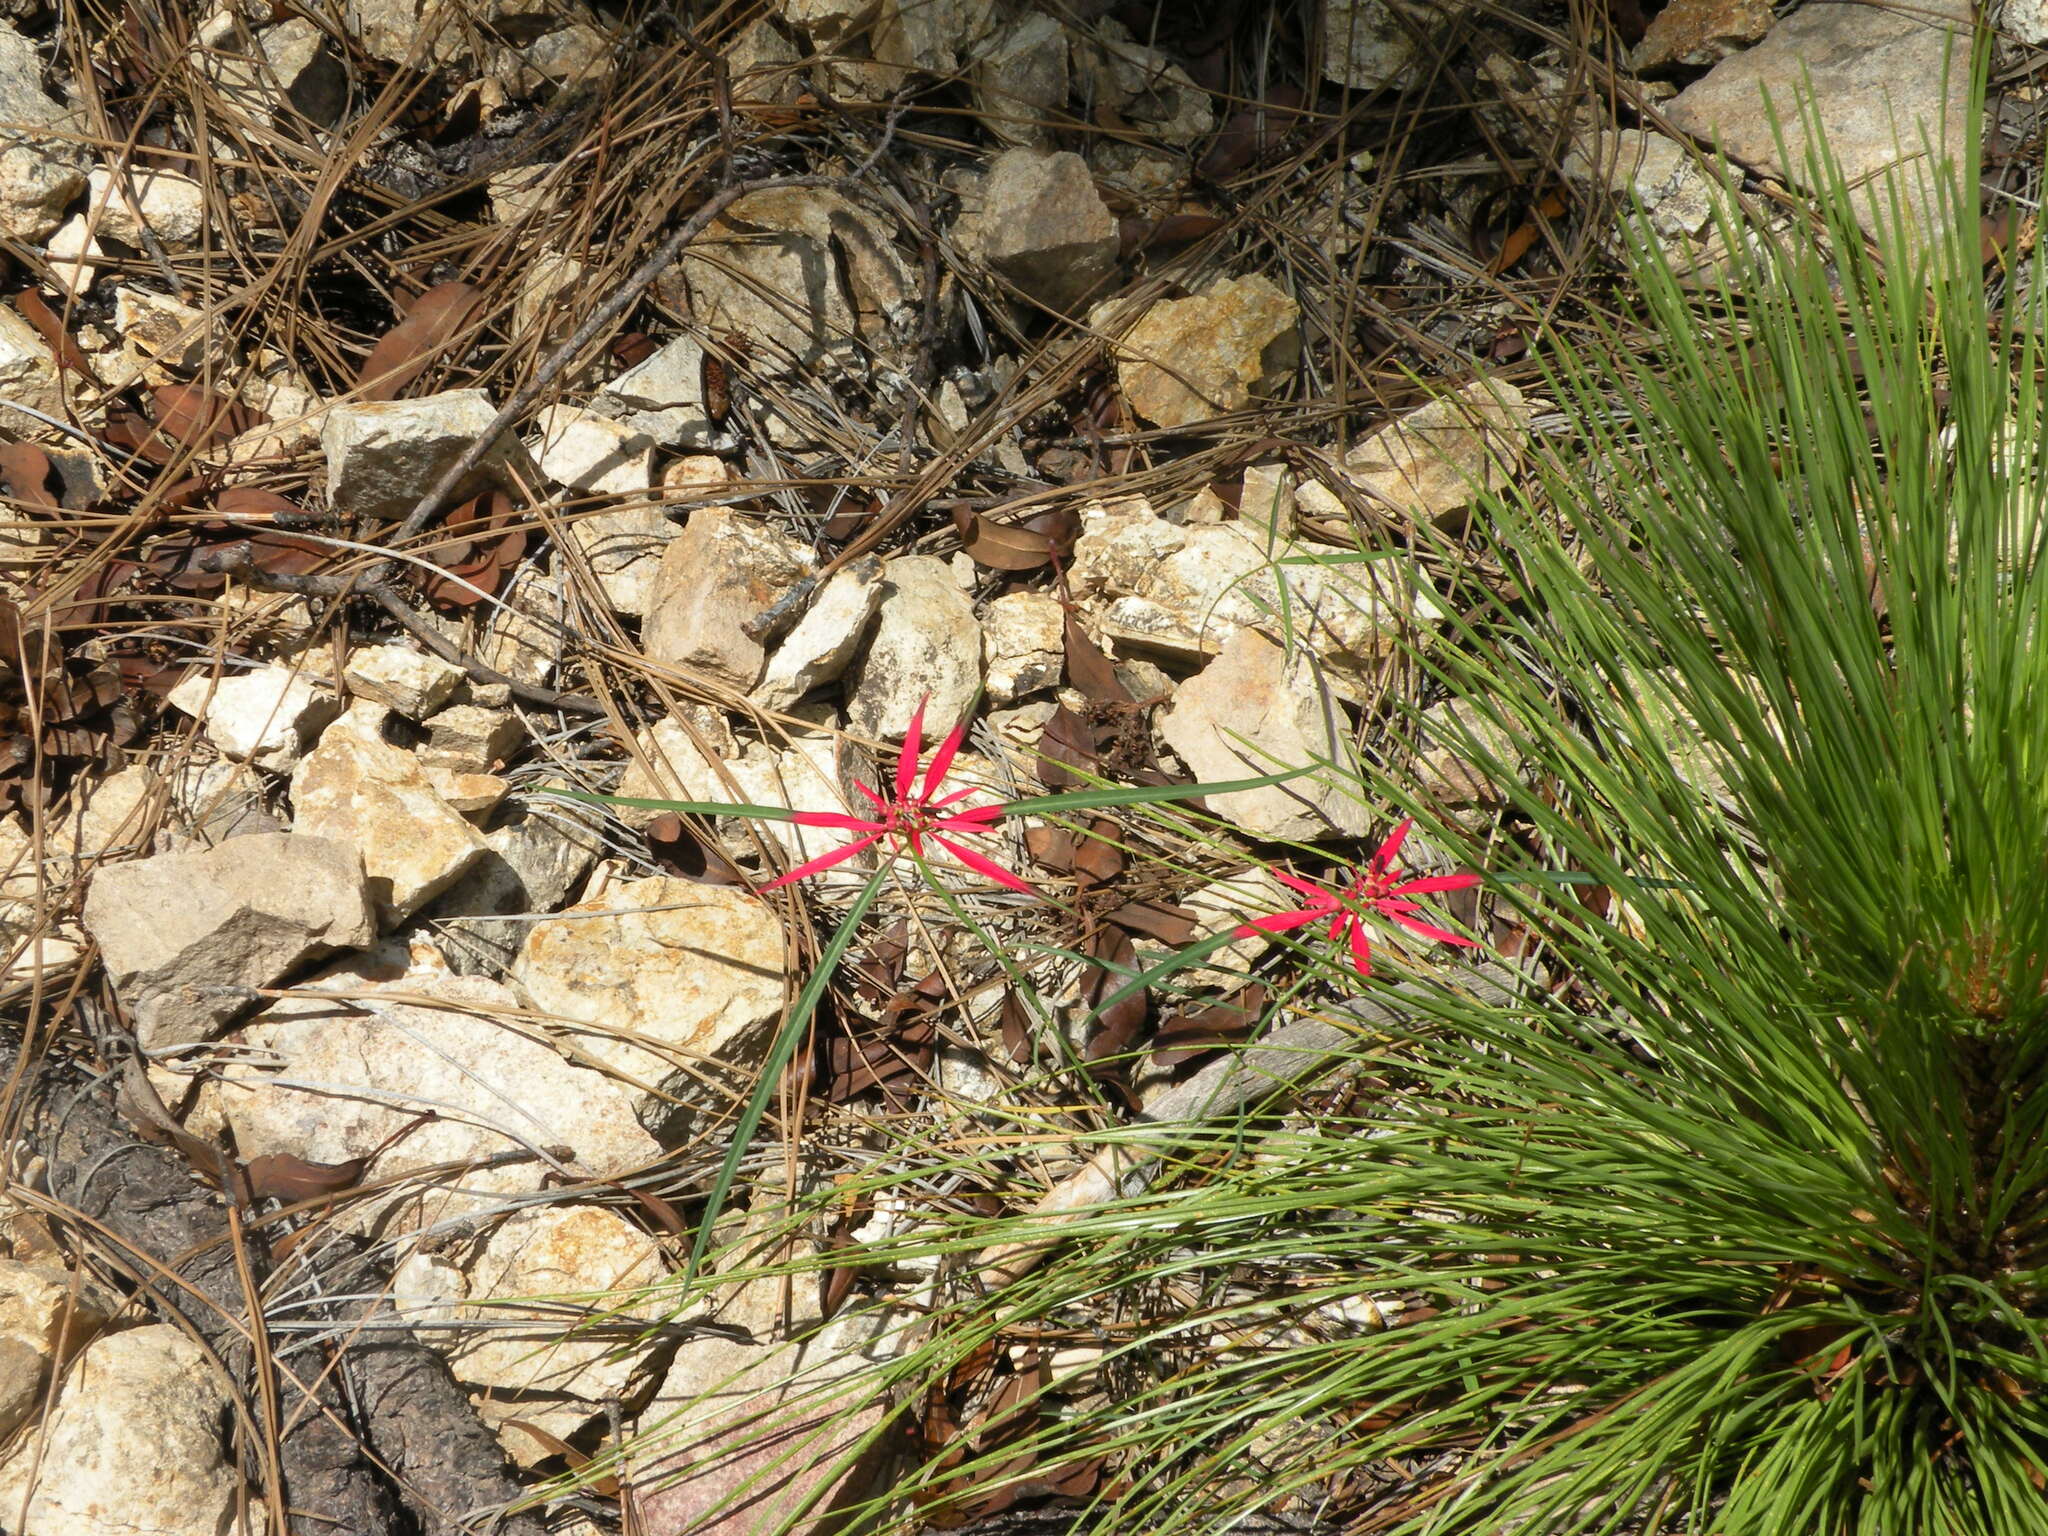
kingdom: Plantae
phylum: Tracheophyta
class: Magnoliopsida
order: Malpighiales
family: Euphorbiaceae
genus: Euphorbia
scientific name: Euphorbia colorata
